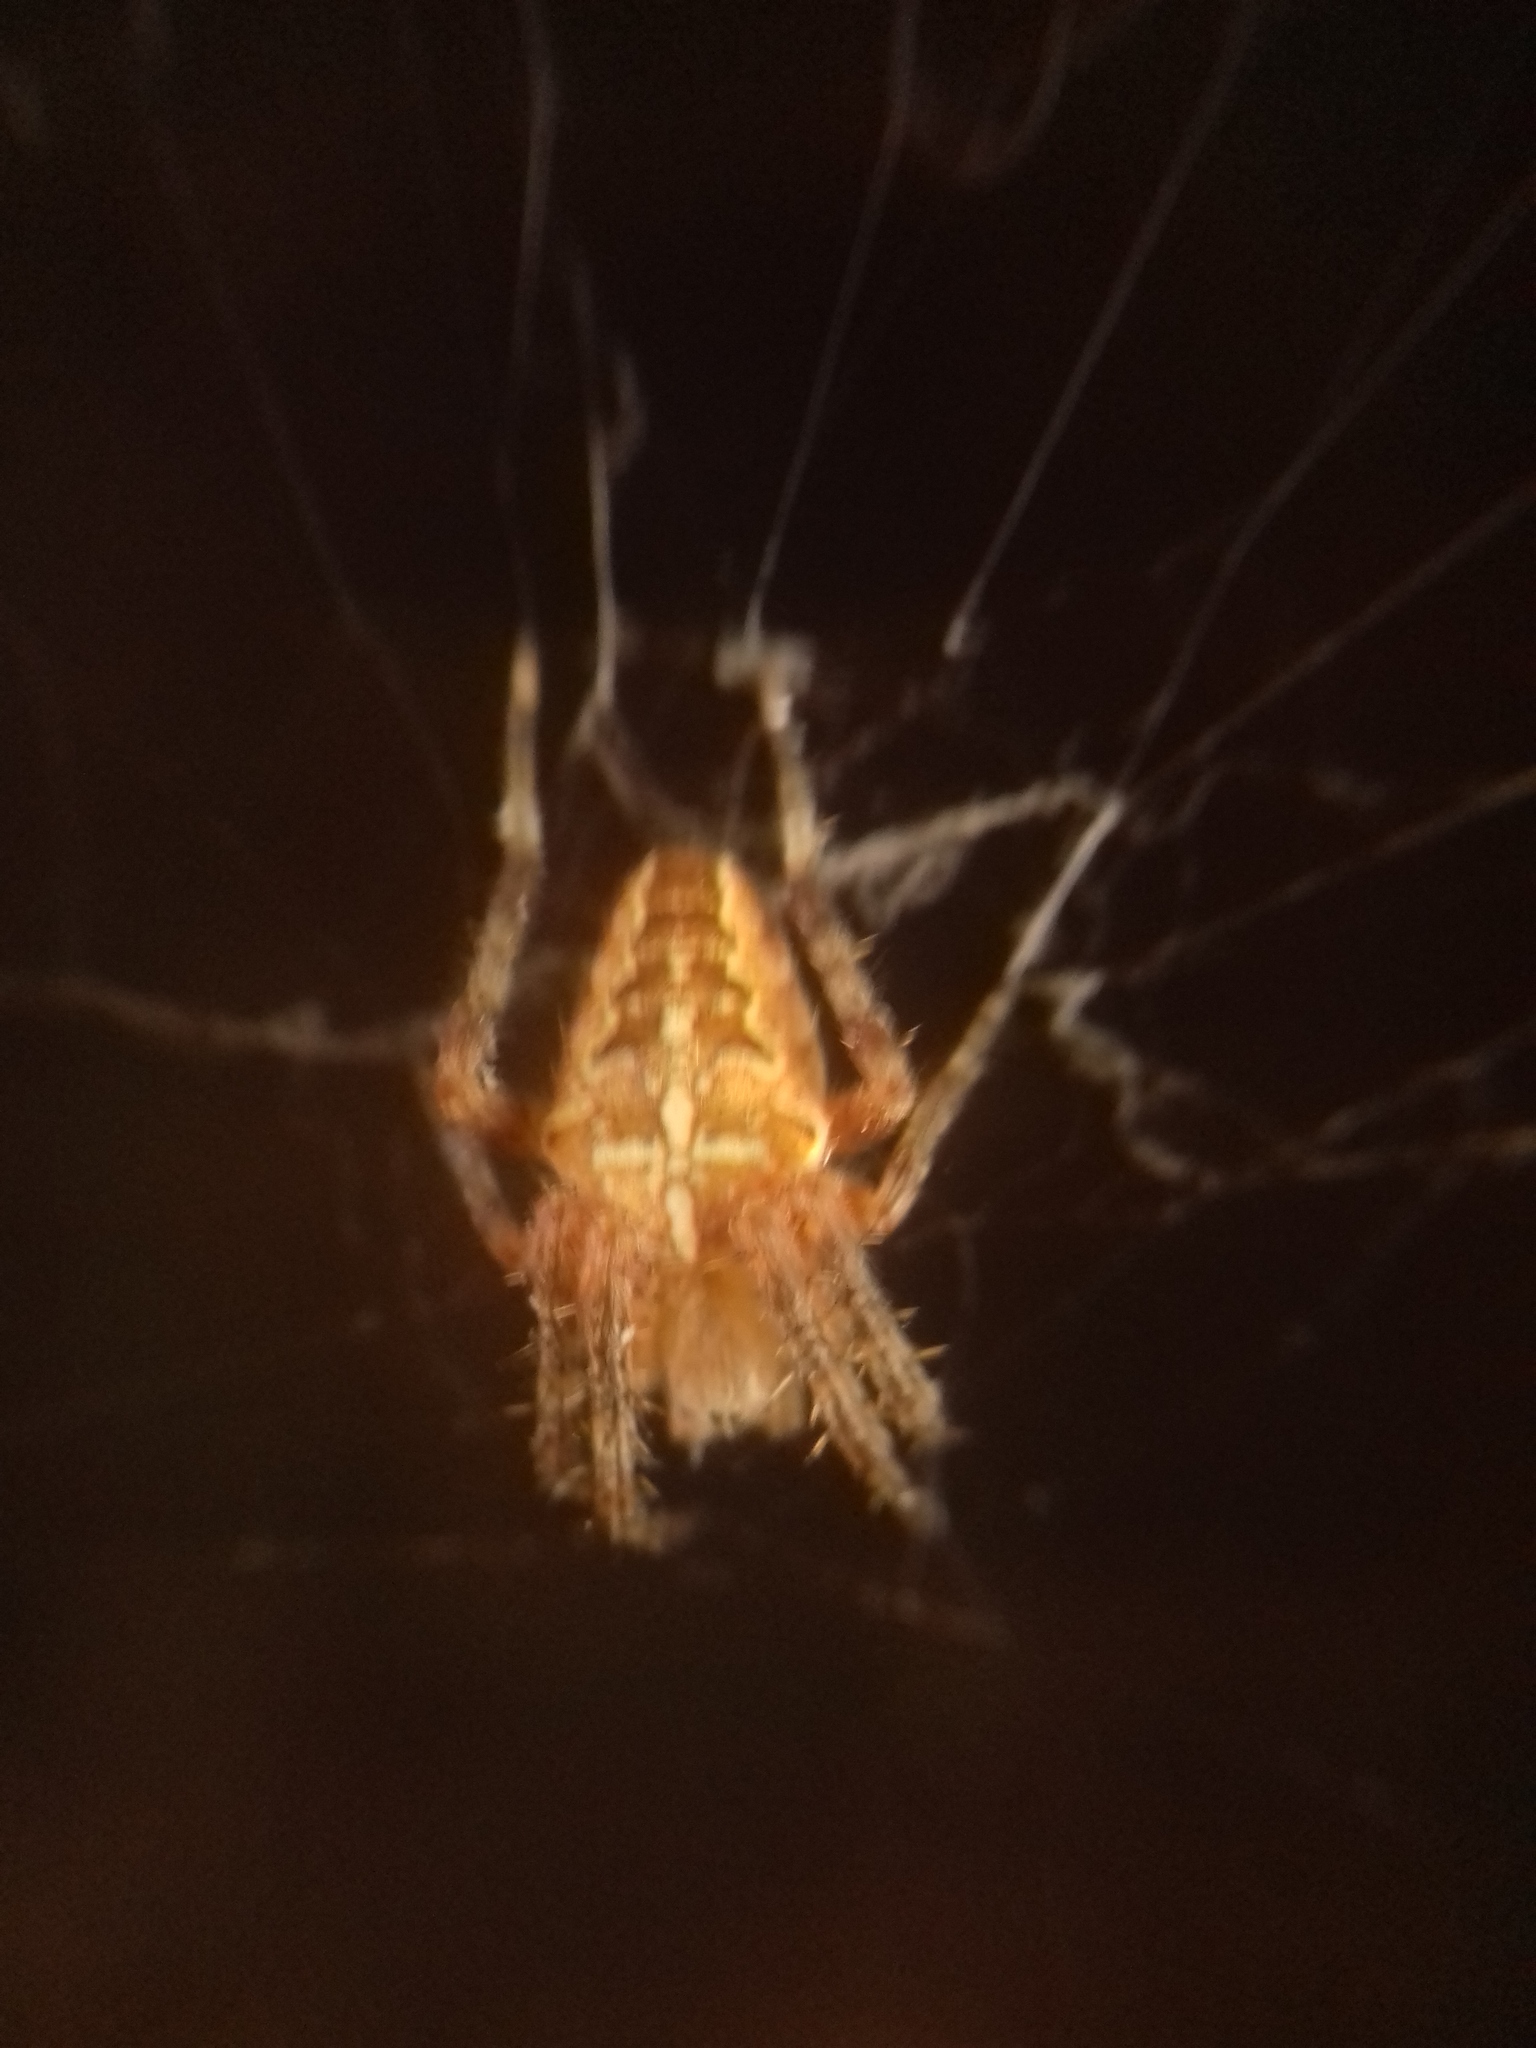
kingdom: Animalia
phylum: Arthropoda
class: Arachnida
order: Araneae
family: Araneidae
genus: Araneus
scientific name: Araneus diadematus
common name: Cross orbweaver
